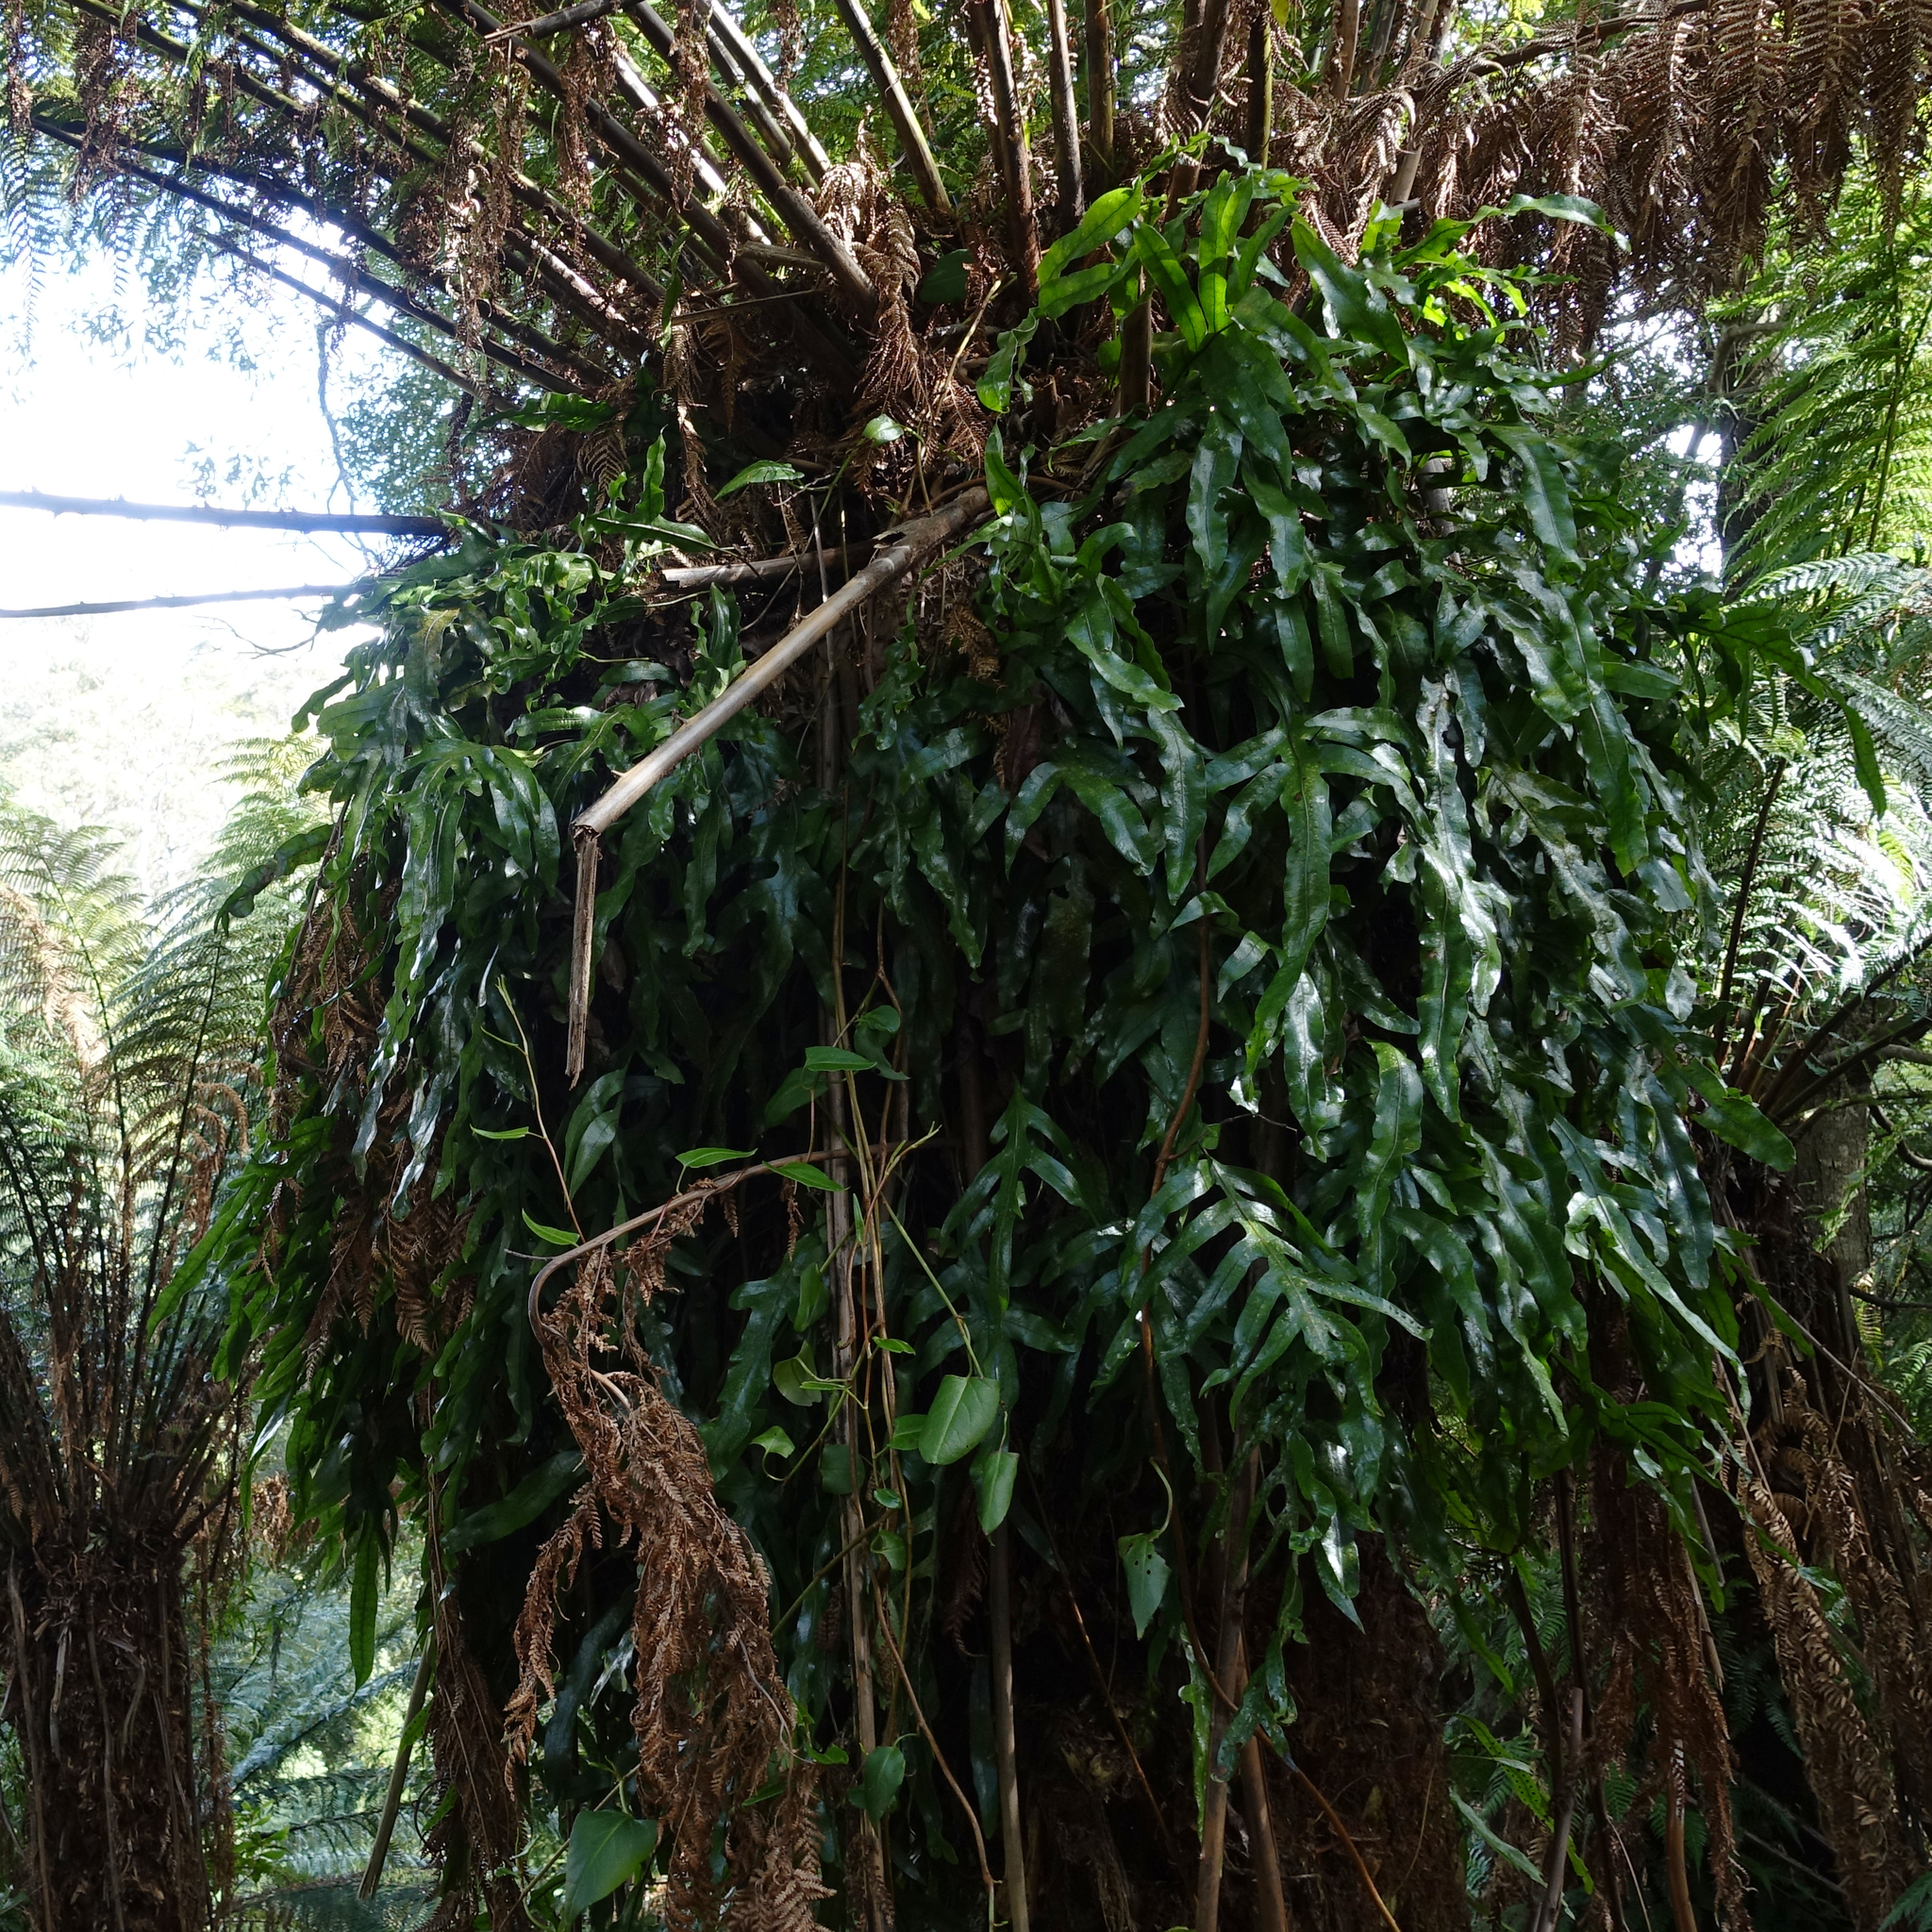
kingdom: Plantae
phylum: Tracheophyta
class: Polypodiopsida
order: Polypodiales
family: Polypodiaceae
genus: Lecanopteris
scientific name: Lecanopteris pustulata
